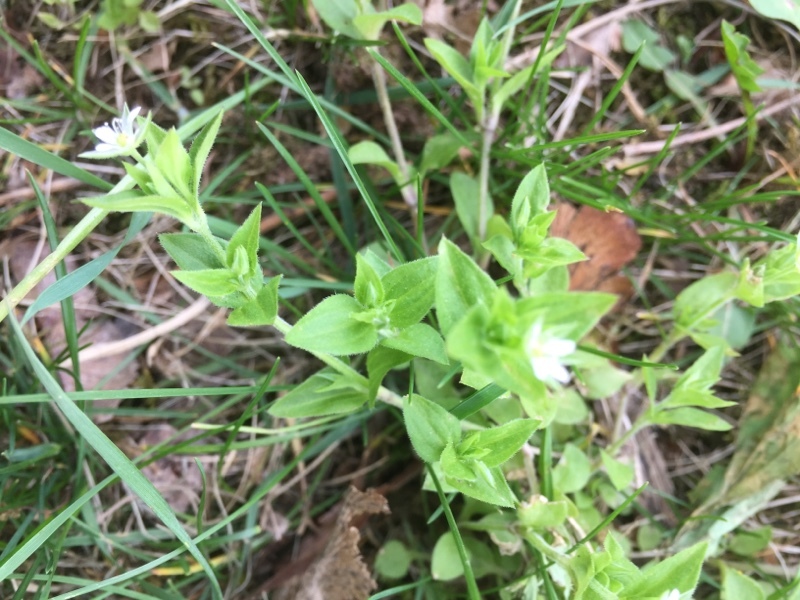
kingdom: Plantae
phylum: Tracheophyta
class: Magnoliopsida
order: Caryophyllales
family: Caryophyllaceae
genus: Moehringia
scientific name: Moehringia trinervia
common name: Three-nerved sandwort
